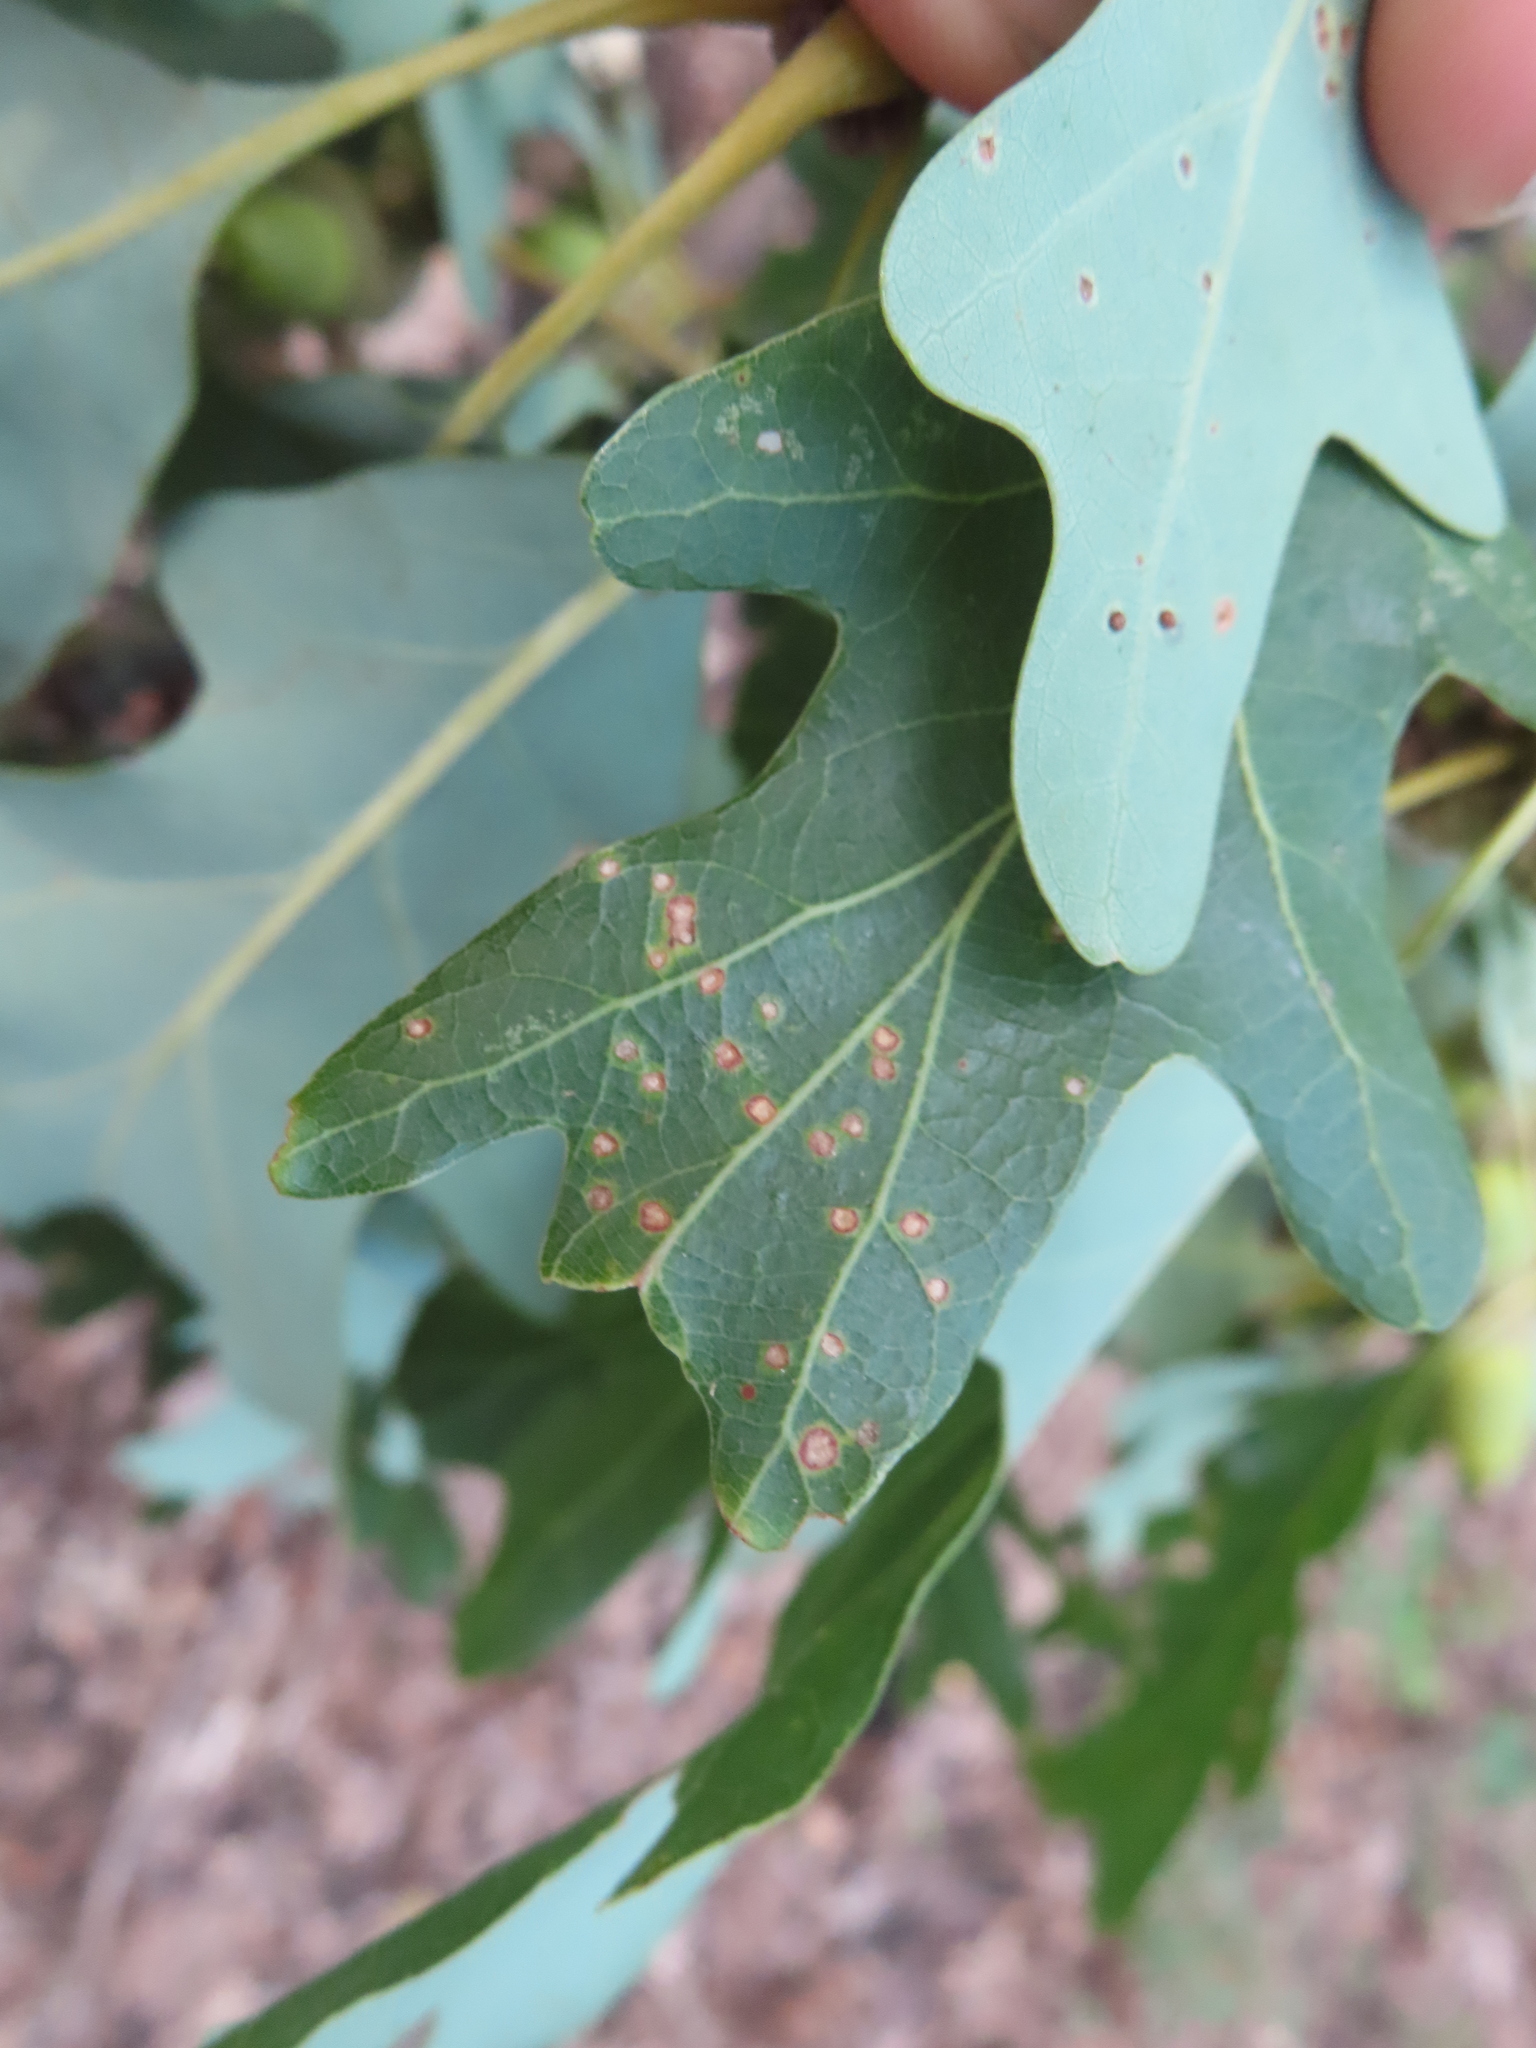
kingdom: Animalia
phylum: Arthropoda
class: Insecta
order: Hymenoptera
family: Cynipidae
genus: Neuroterus
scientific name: Neuroterus
